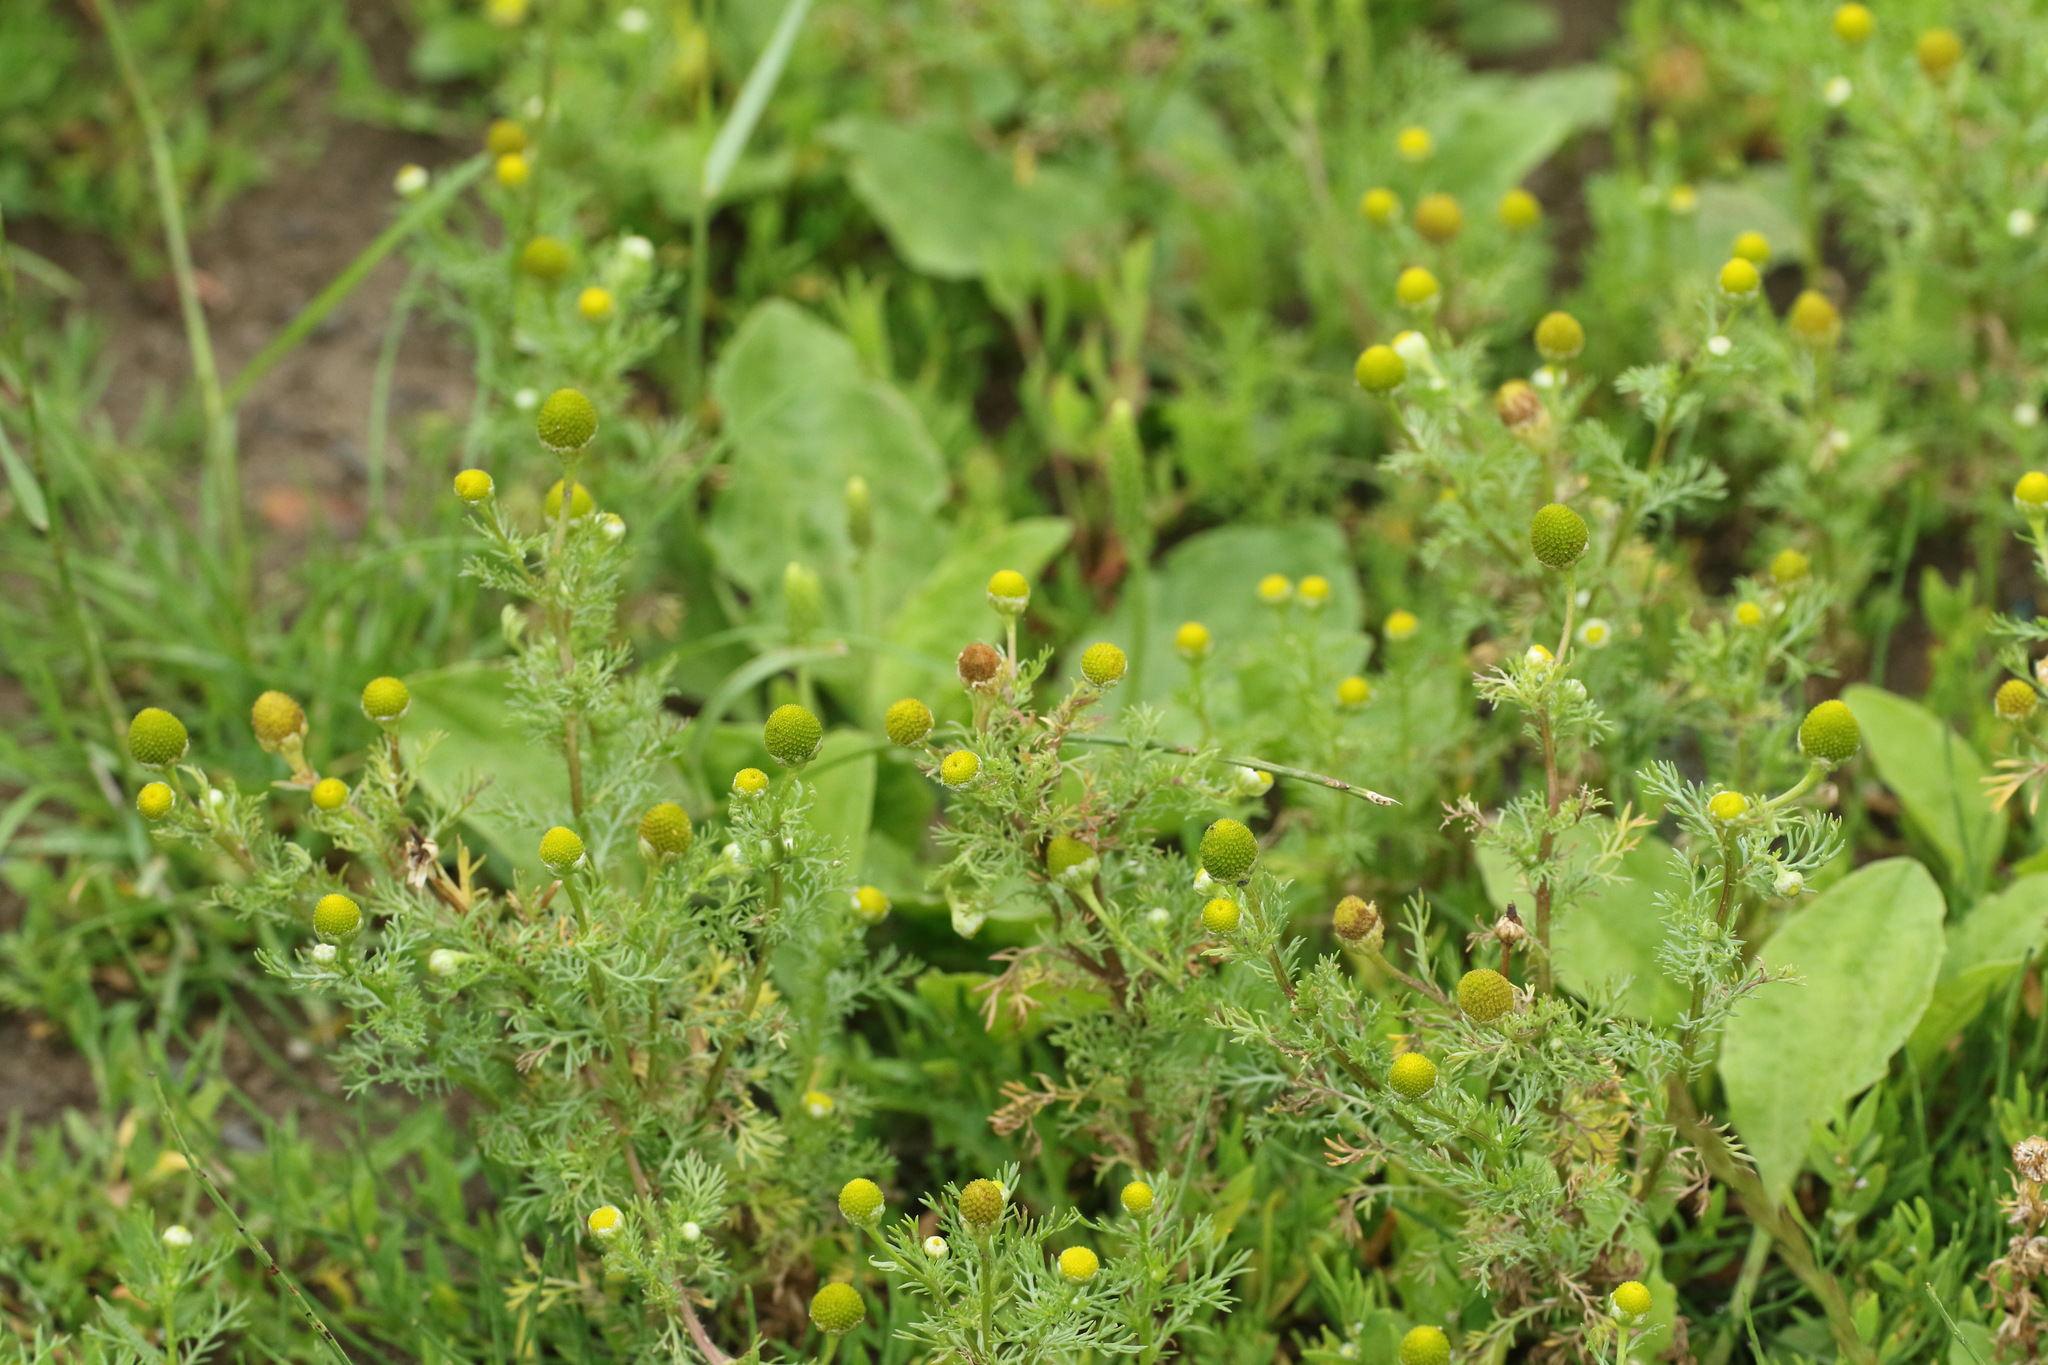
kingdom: Plantae
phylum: Tracheophyta
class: Magnoliopsida
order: Asterales
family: Asteraceae
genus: Matricaria
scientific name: Matricaria discoidea
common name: Disc mayweed
